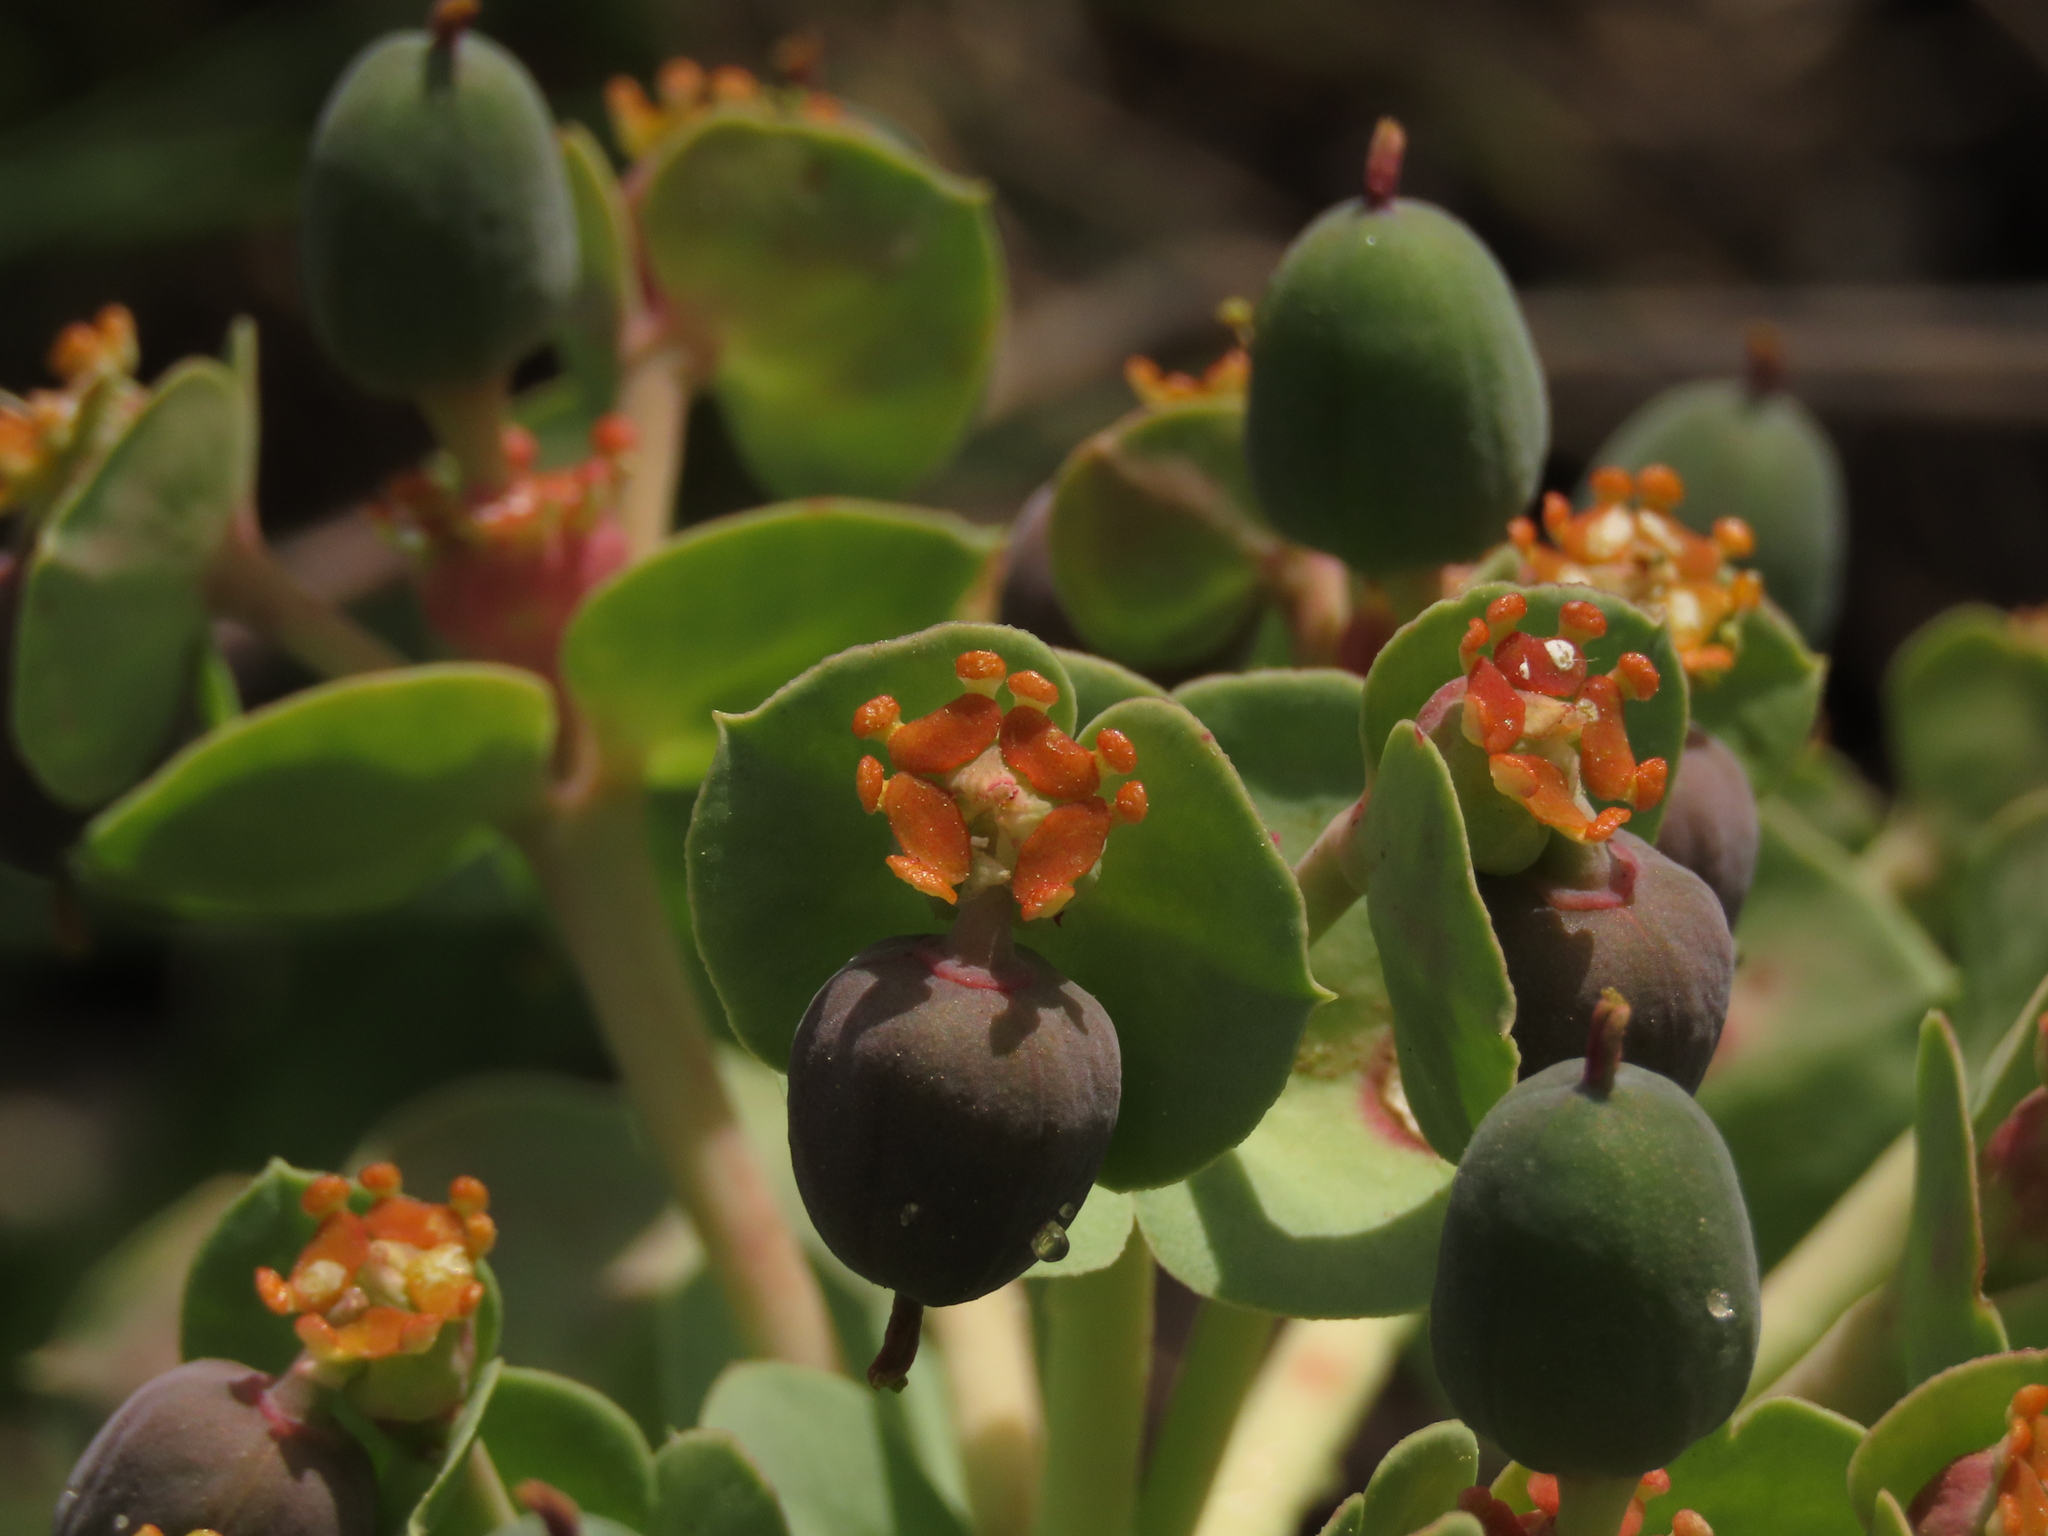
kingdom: Plantae
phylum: Tracheophyta
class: Magnoliopsida
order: Malpighiales
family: Euphorbiaceae
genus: Euphorbia
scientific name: Euphorbia myrsinites
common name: Myrtle spurge
